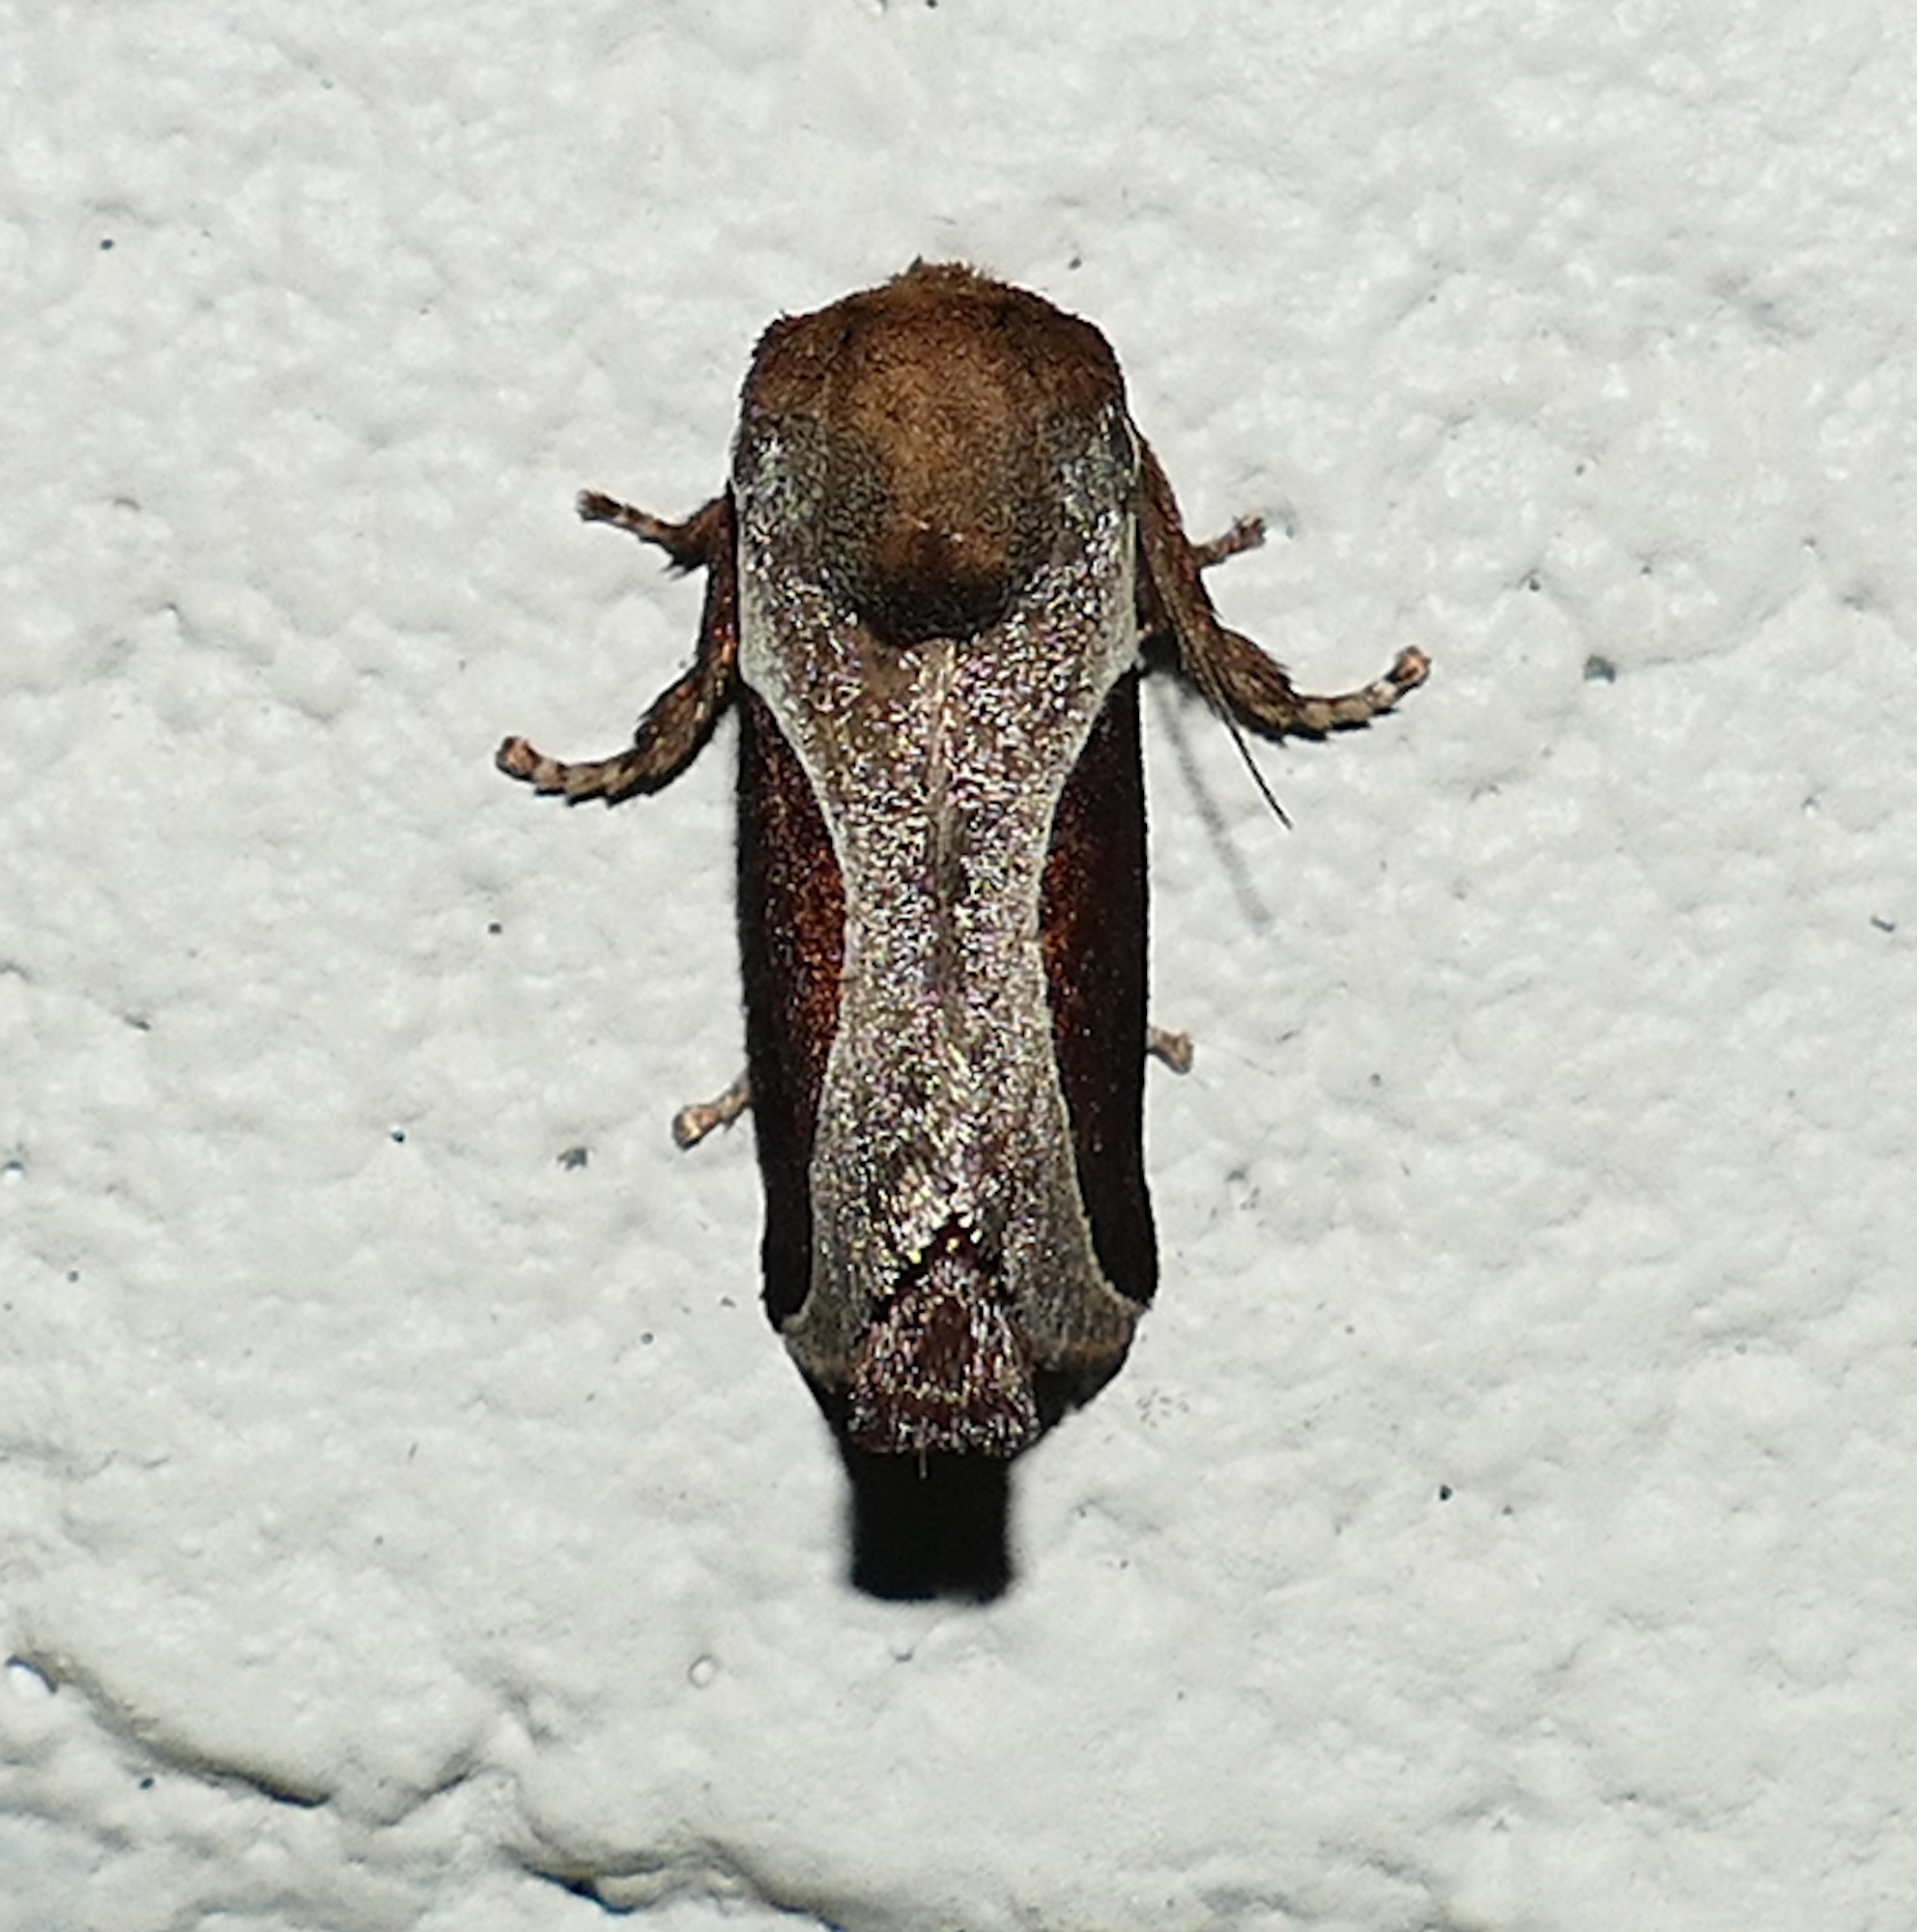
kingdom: Animalia
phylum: Arthropoda
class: Insecta
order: Lepidoptera
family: Limacodidae
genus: Prolimacodes
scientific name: Prolimacodes badia
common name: Skiff moth
